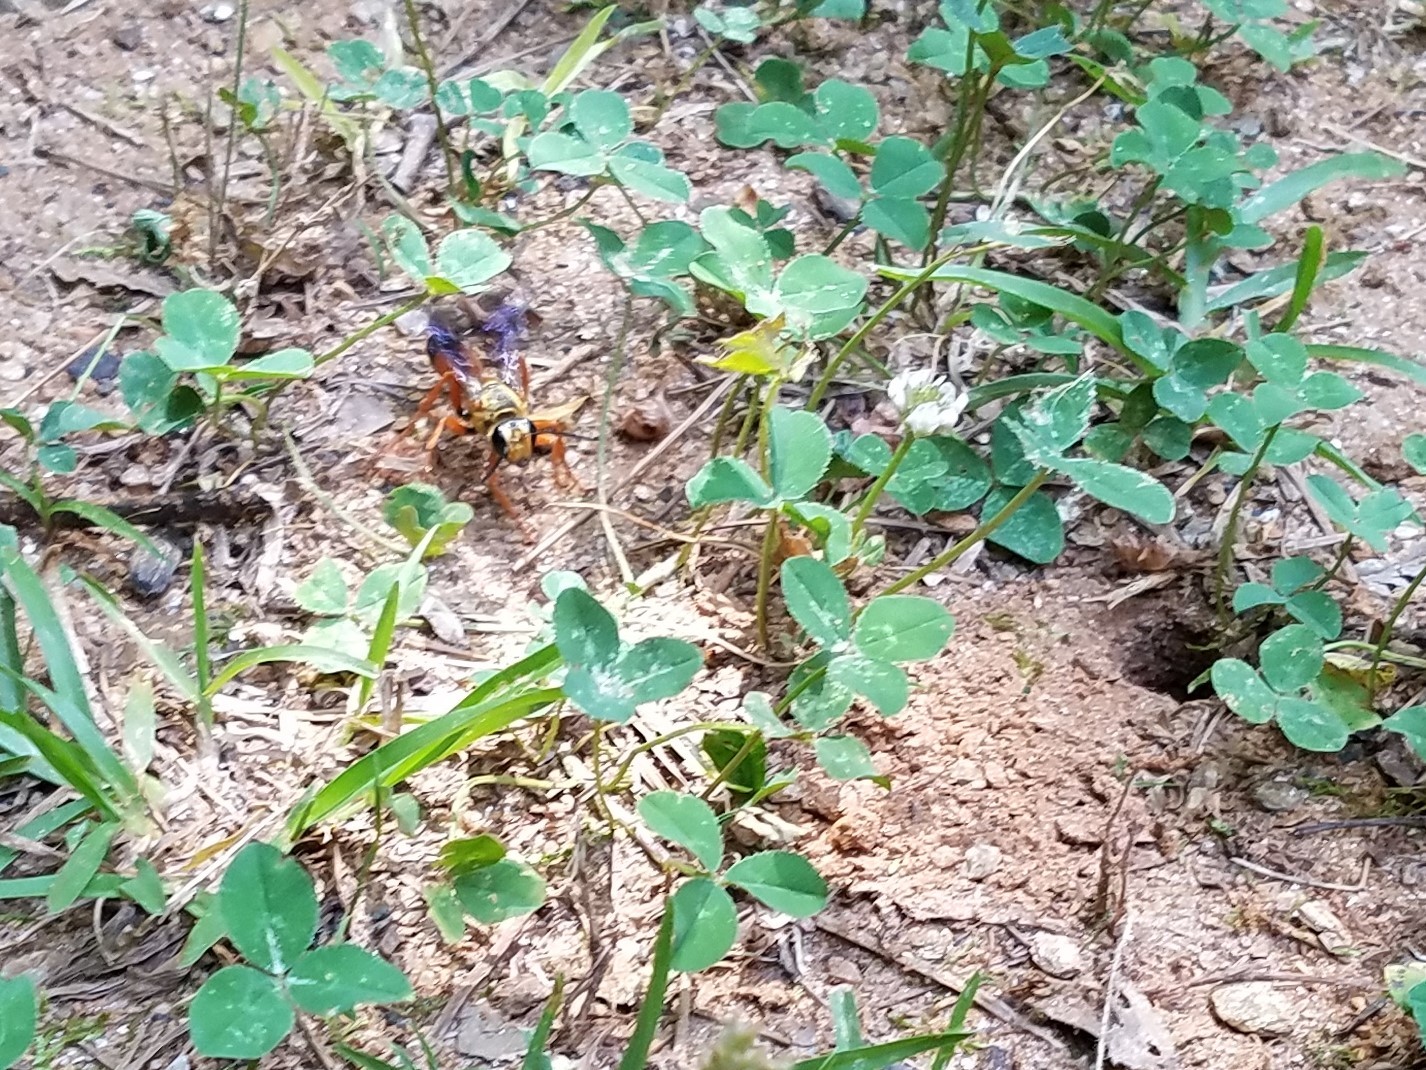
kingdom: Animalia
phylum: Arthropoda
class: Insecta
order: Hymenoptera
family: Sphecidae
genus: Sphex
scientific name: Sphex ichneumoneus
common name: Great golden digger wasp
